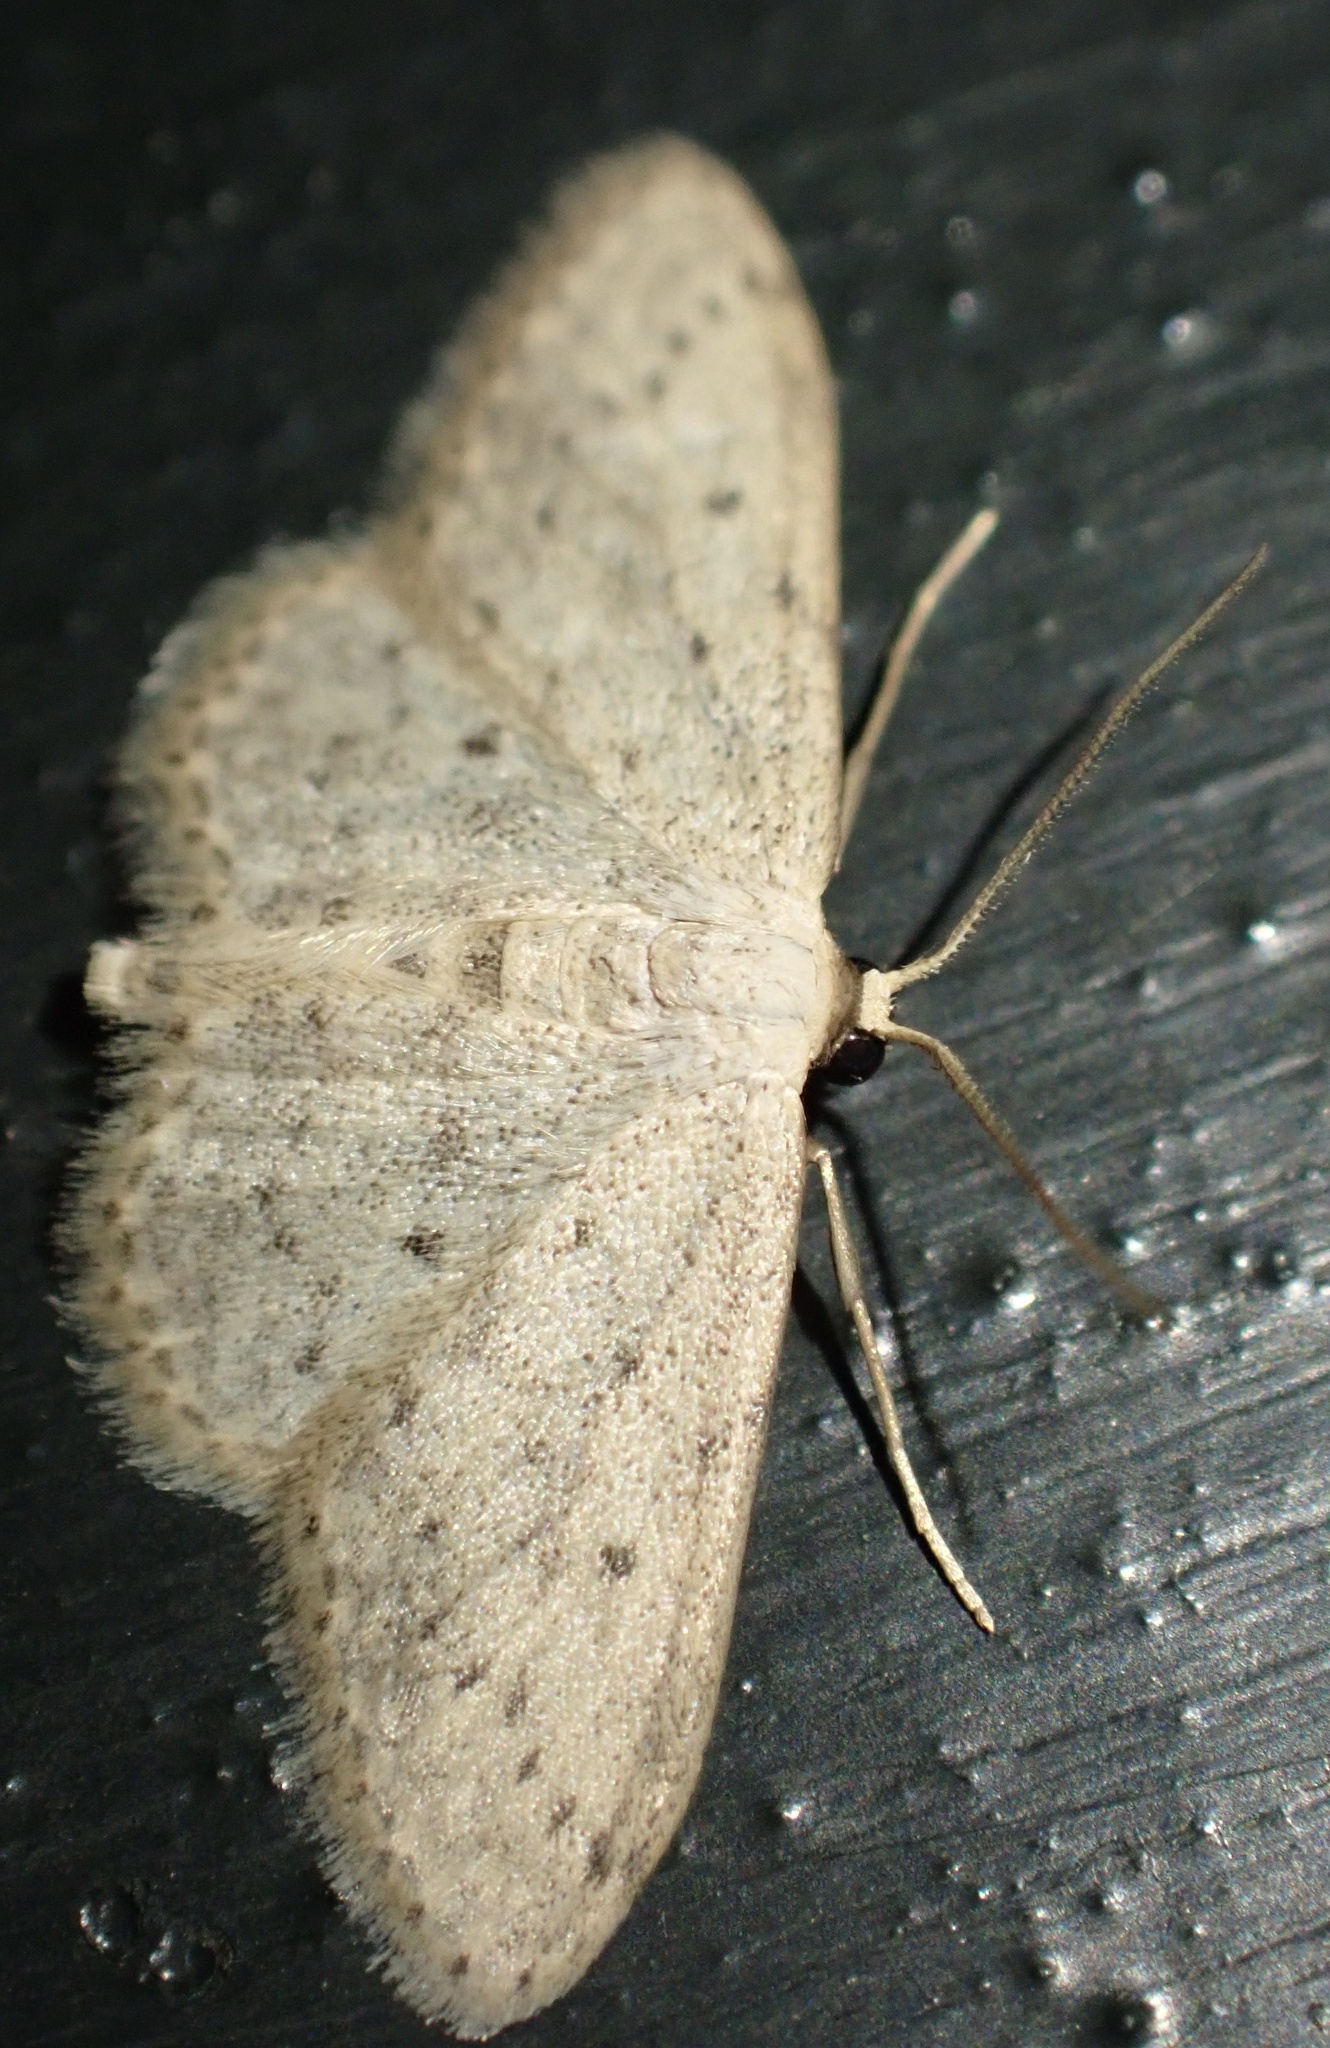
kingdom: Animalia
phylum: Arthropoda
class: Insecta
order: Lepidoptera
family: Geometridae
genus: Idaea
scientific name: Idaea seriata
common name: Small dusty wave
